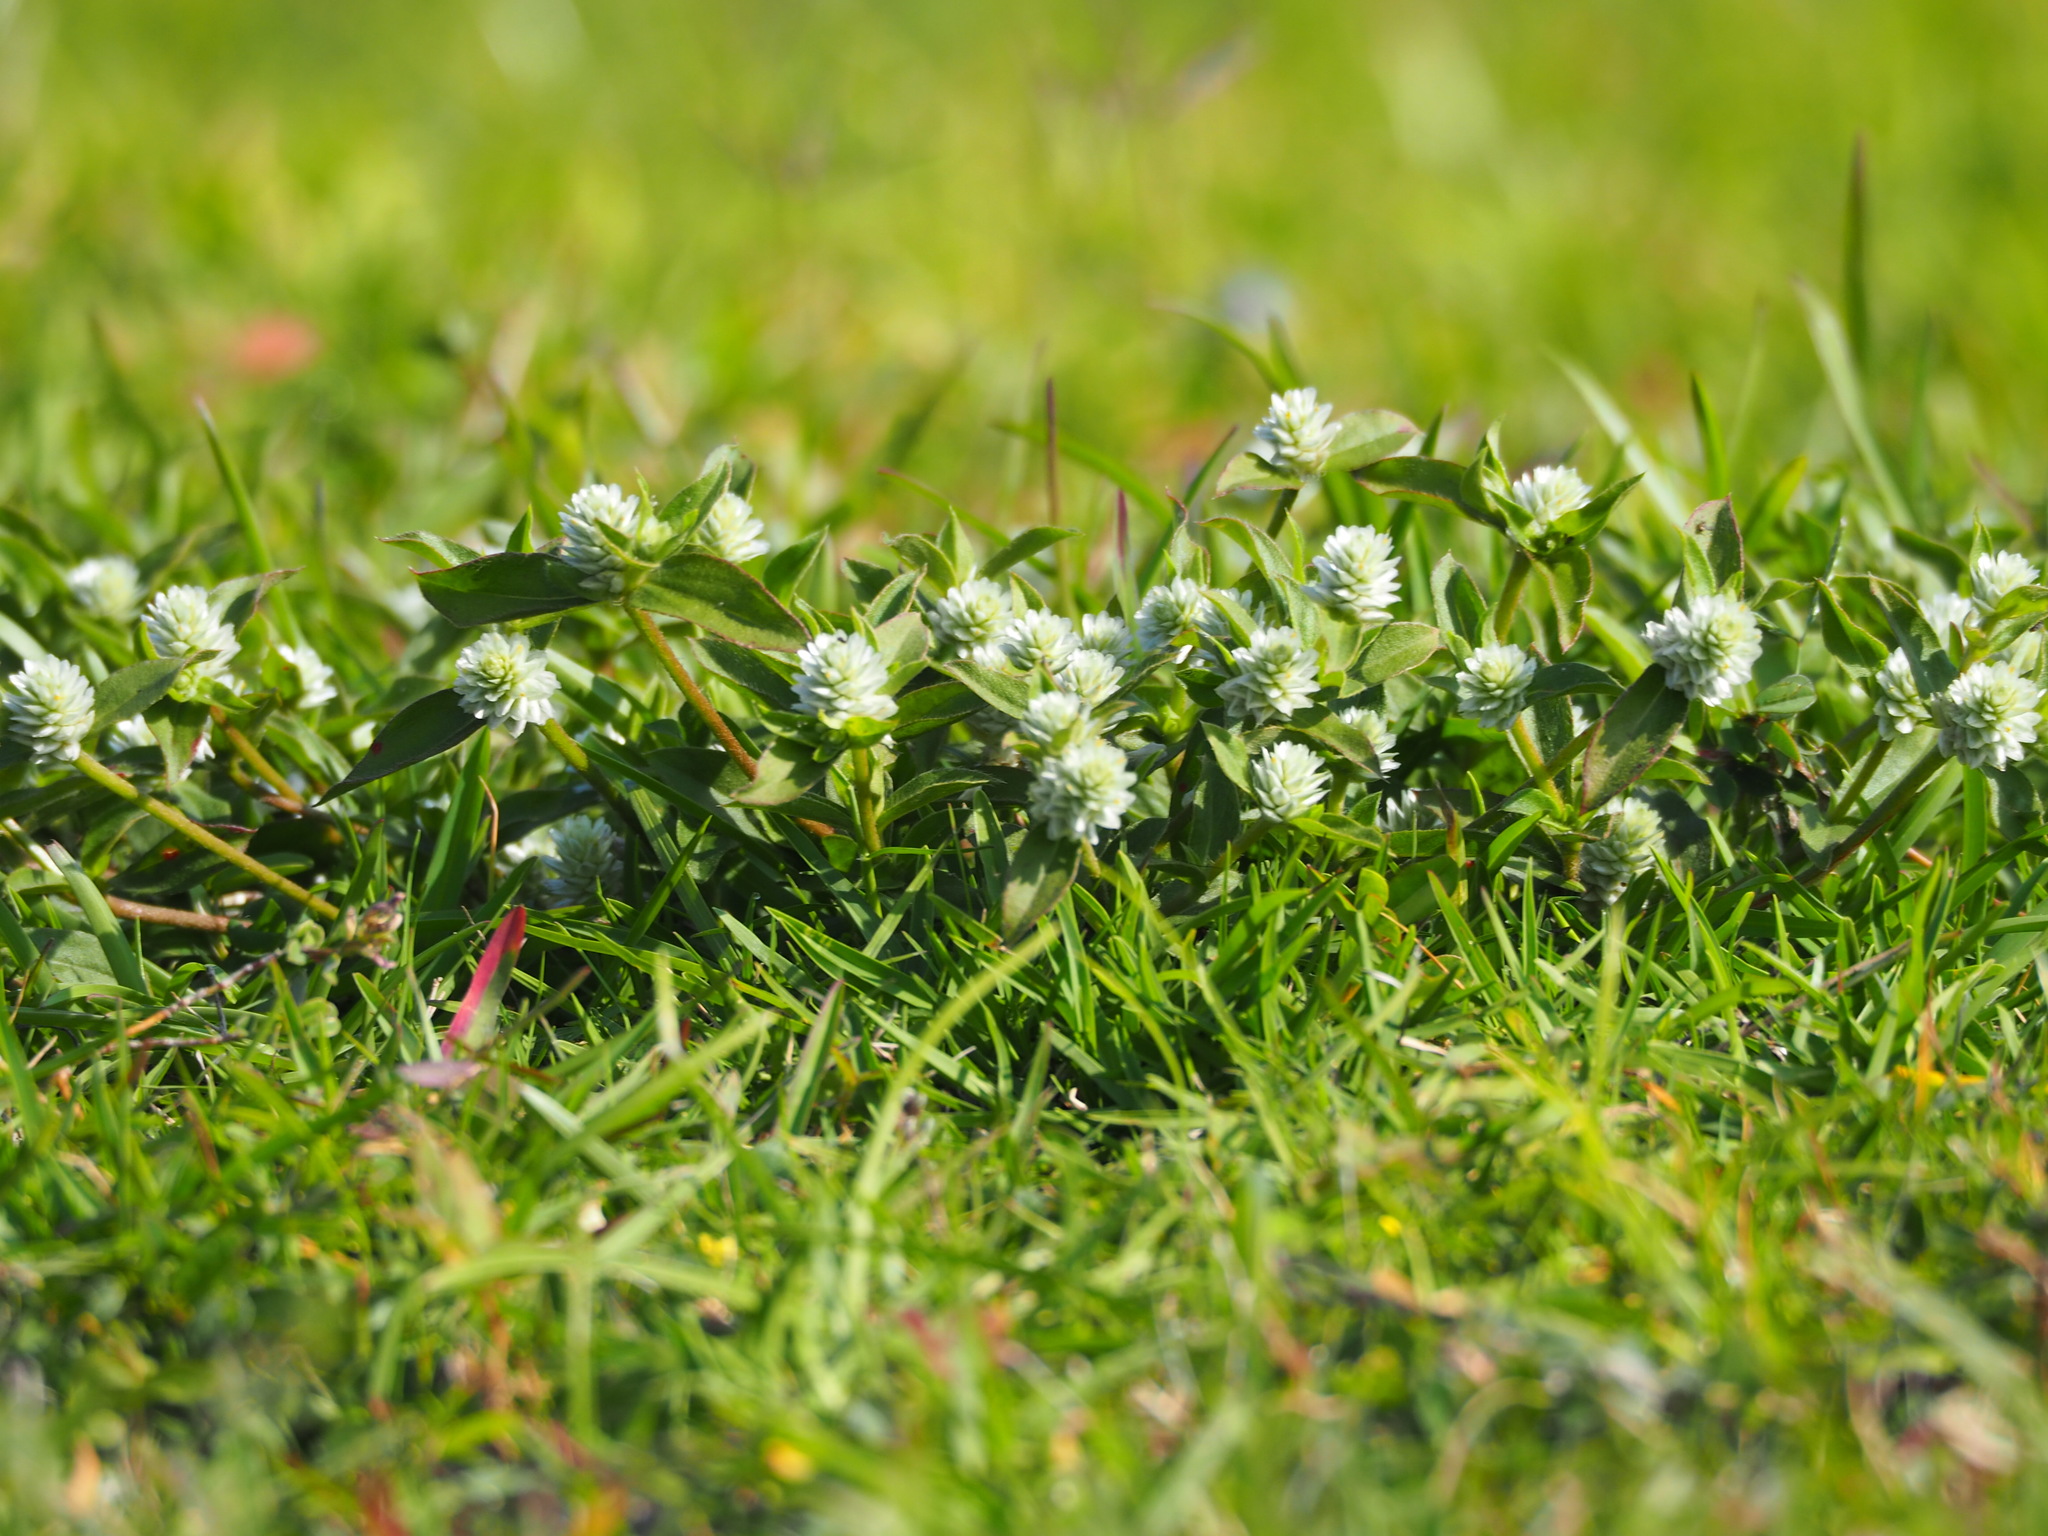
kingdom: Plantae
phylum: Tracheophyta
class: Magnoliopsida
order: Caryophyllales
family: Amaranthaceae
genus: Gomphrena
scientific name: Gomphrena serrata
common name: Arrasa con todo
